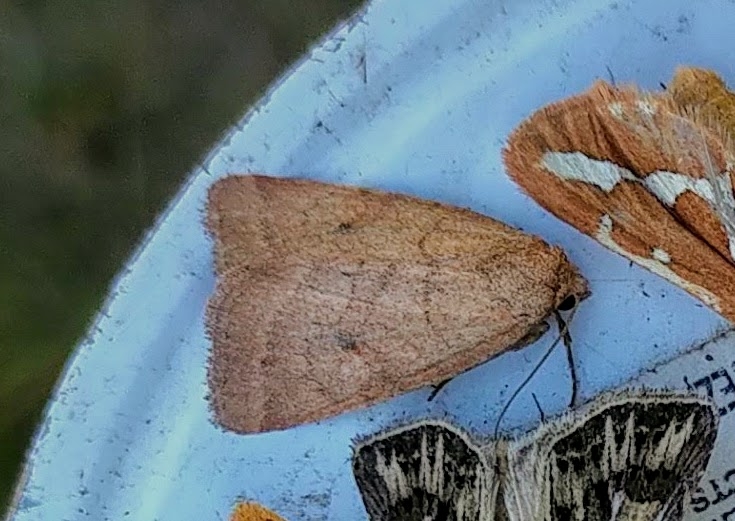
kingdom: Animalia
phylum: Arthropoda
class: Insecta
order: Lepidoptera
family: Noctuidae
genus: Photedes
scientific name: Photedes inops
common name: Spartina borer moth
